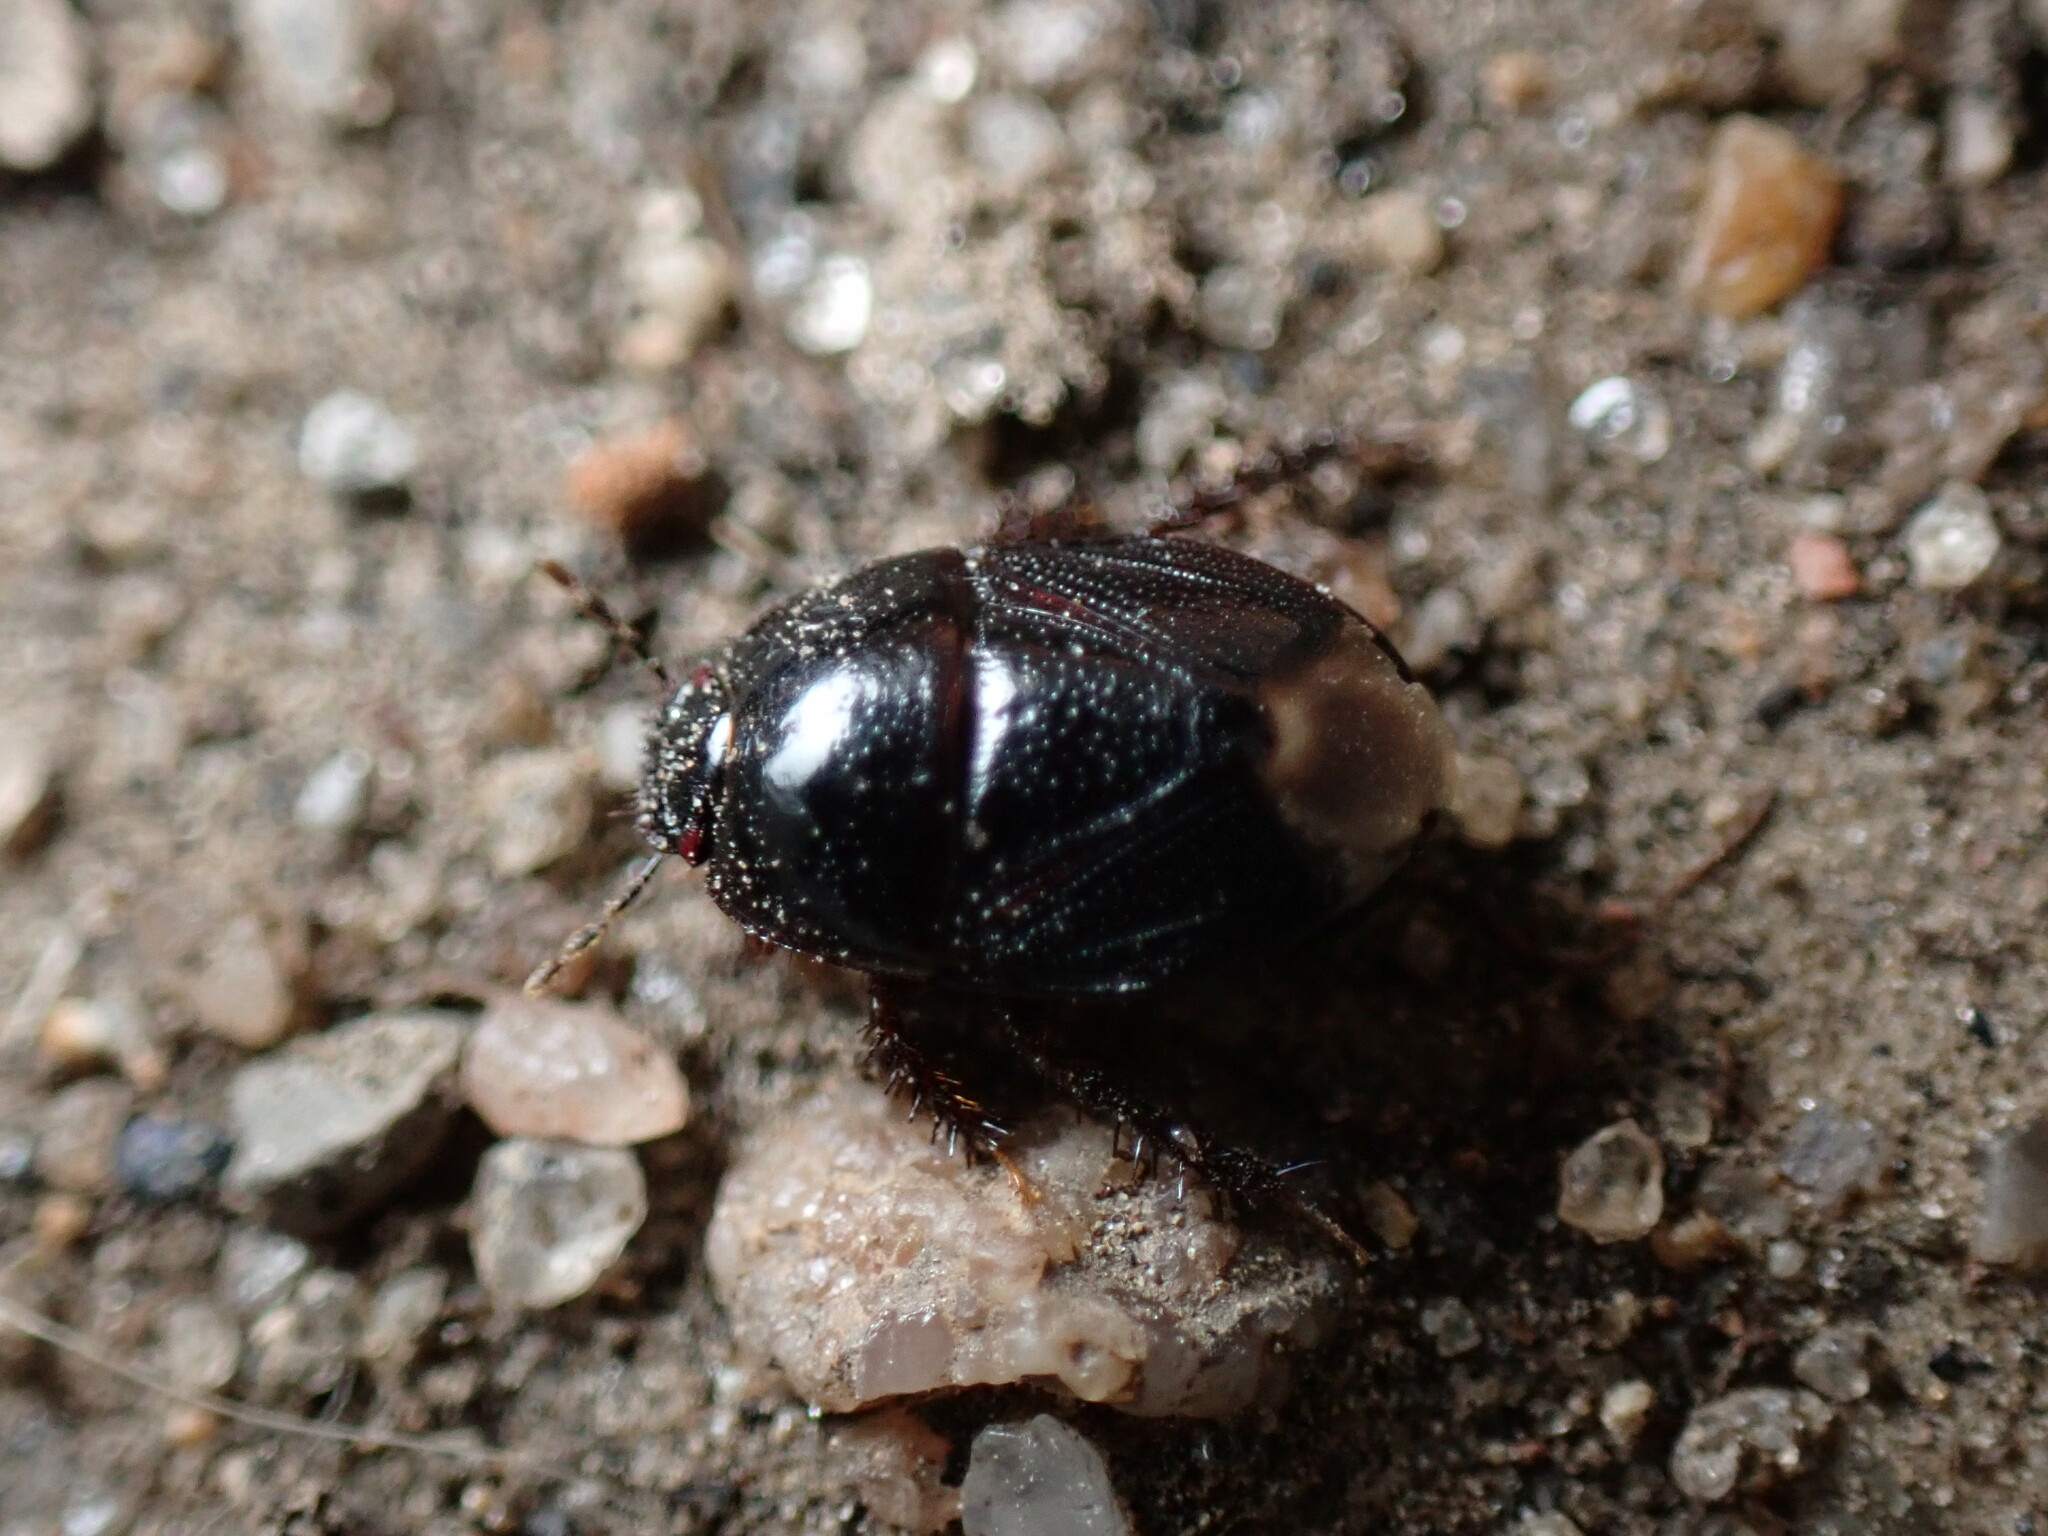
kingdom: Animalia
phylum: Arthropoda
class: Insecta
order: Hemiptera
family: Cydnidae
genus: Pangaeus
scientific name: Pangaeus bilineatus
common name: Burrower bug
